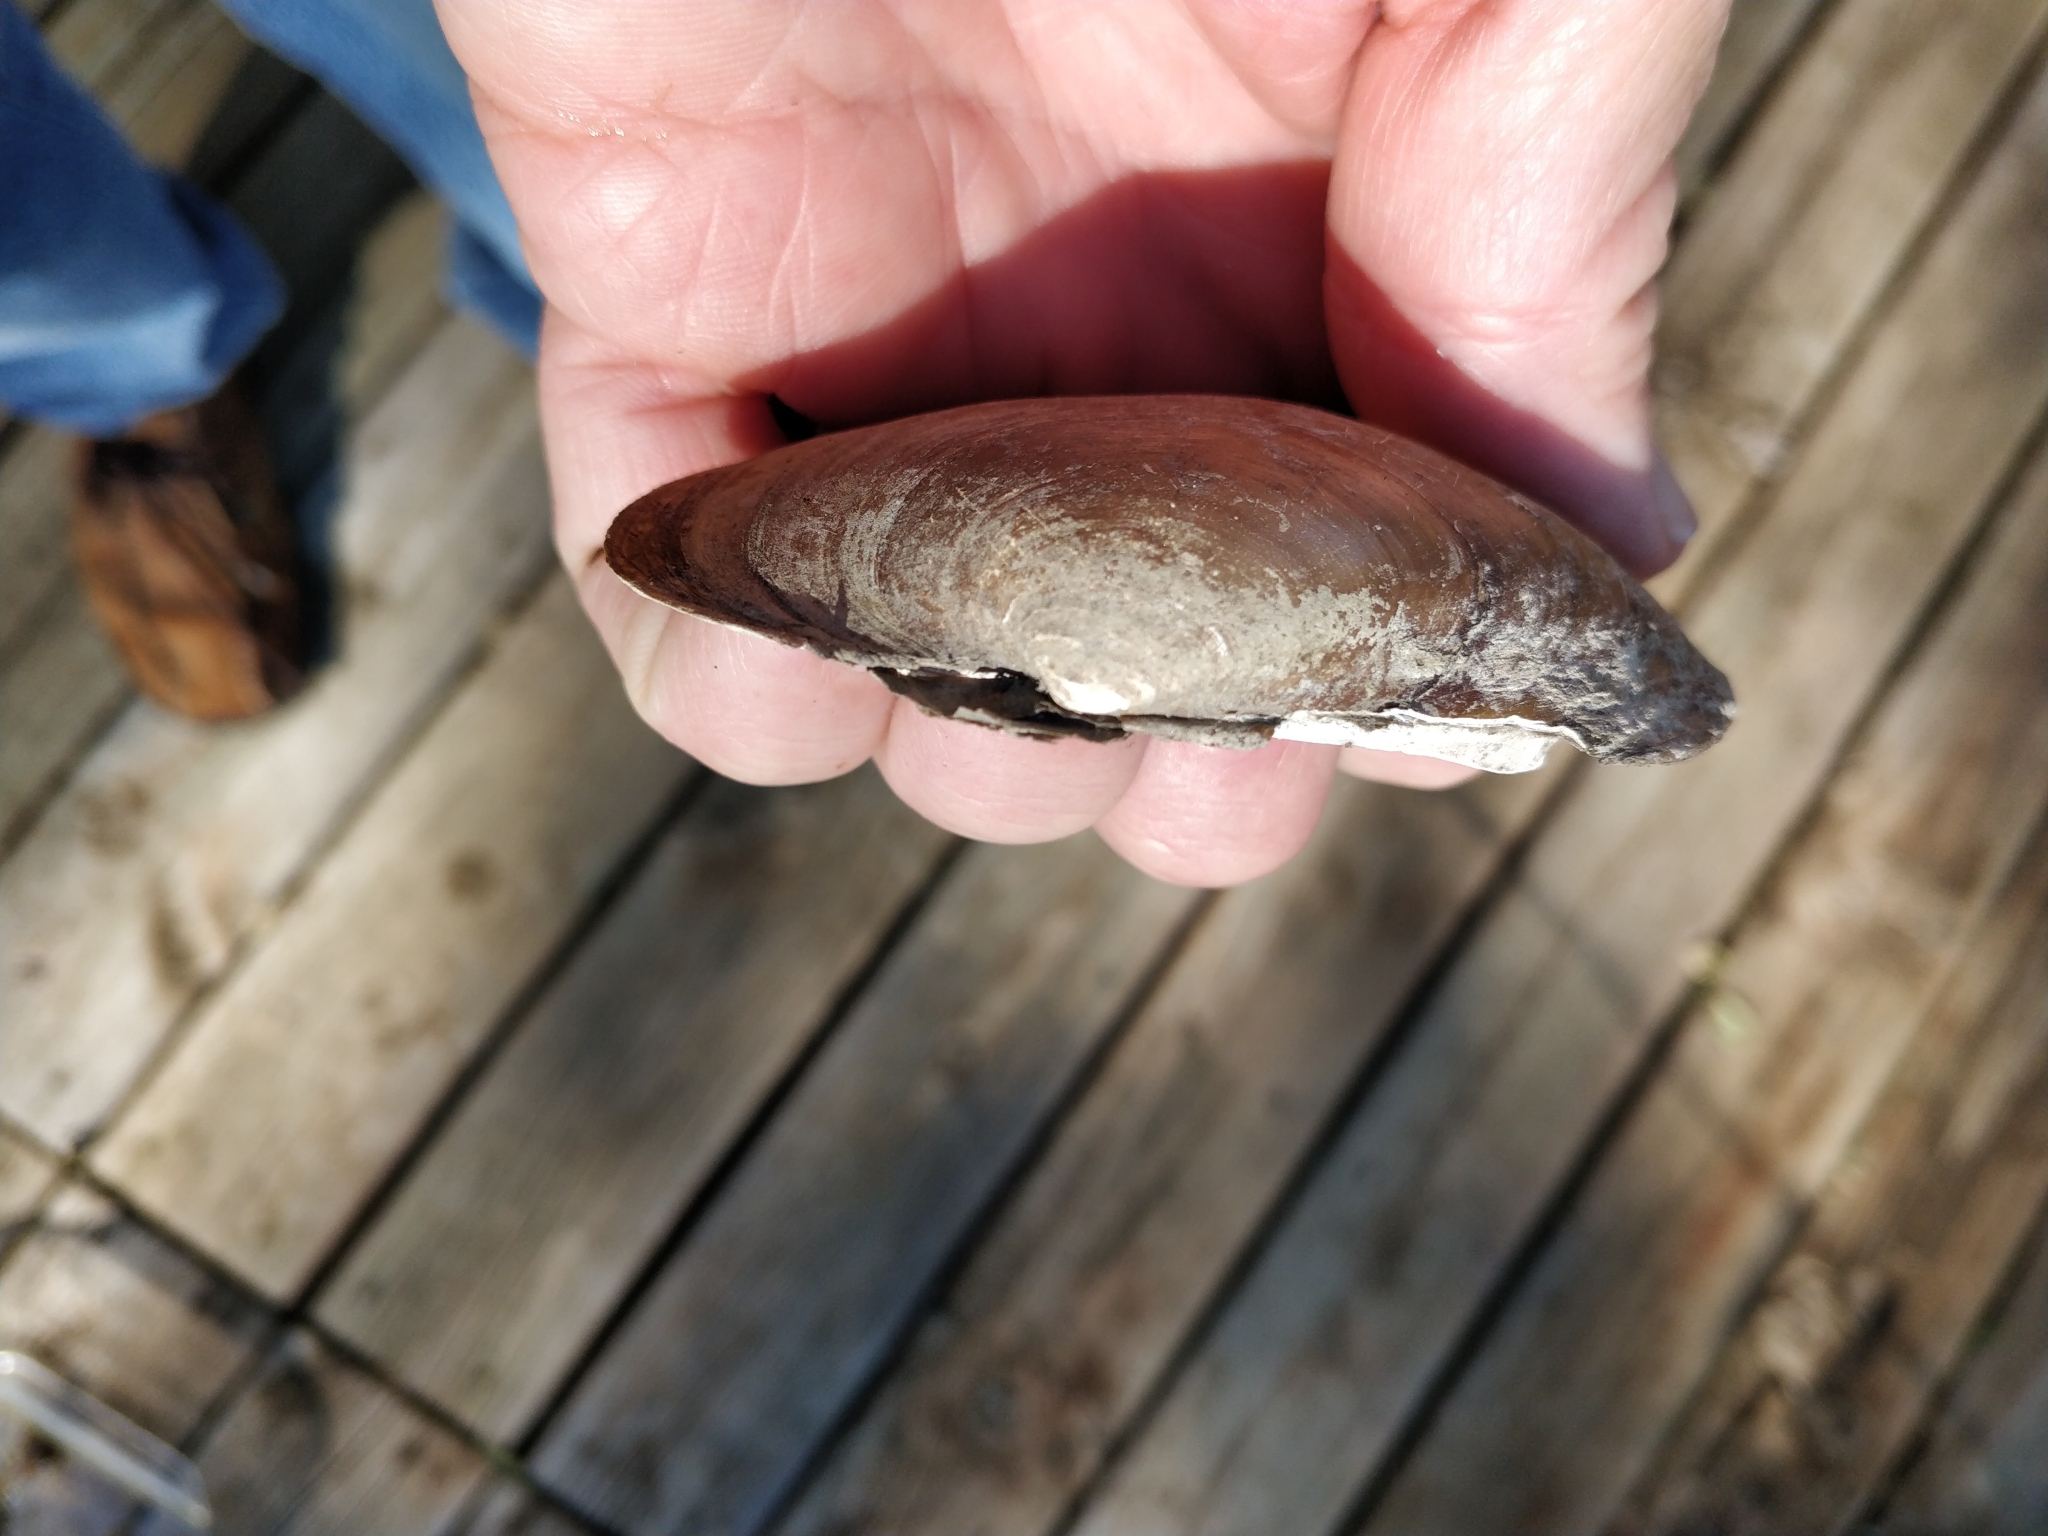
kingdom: Animalia
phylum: Mollusca
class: Bivalvia
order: Unionida
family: Unionidae
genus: Lampsilis
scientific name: Lampsilis cardium
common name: Plain pocketbook
